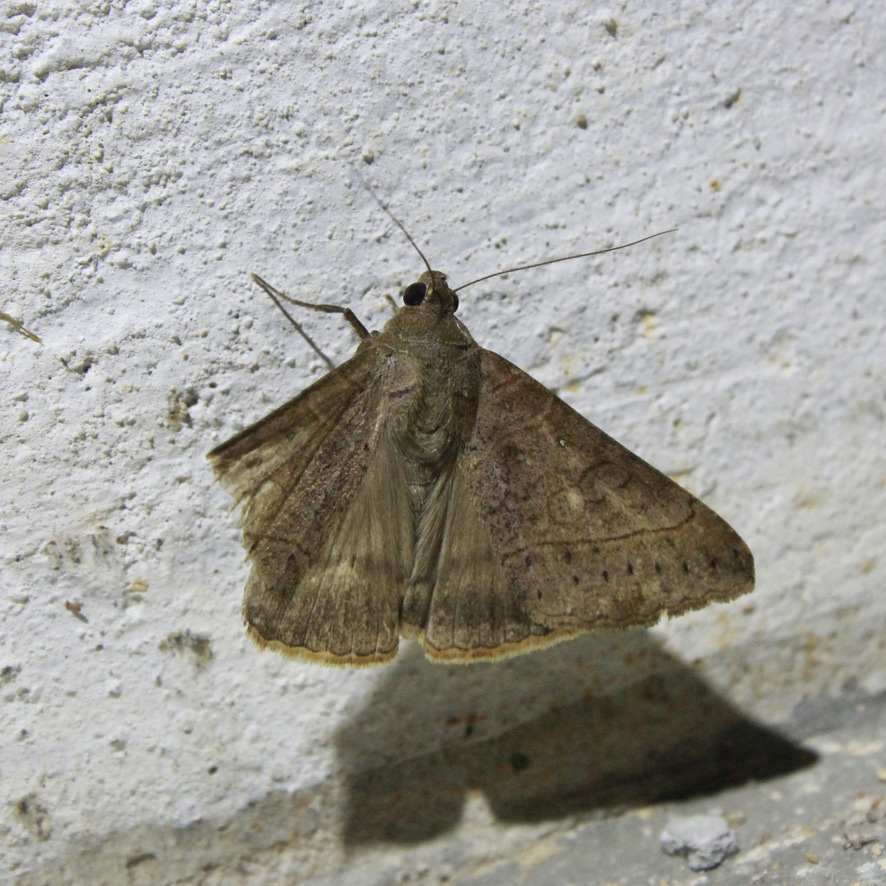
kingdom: Animalia
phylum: Arthropoda
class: Insecta
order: Lepidoptera
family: Erebidae
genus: Mocis
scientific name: Mocis latipes
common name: Striped grass looper
